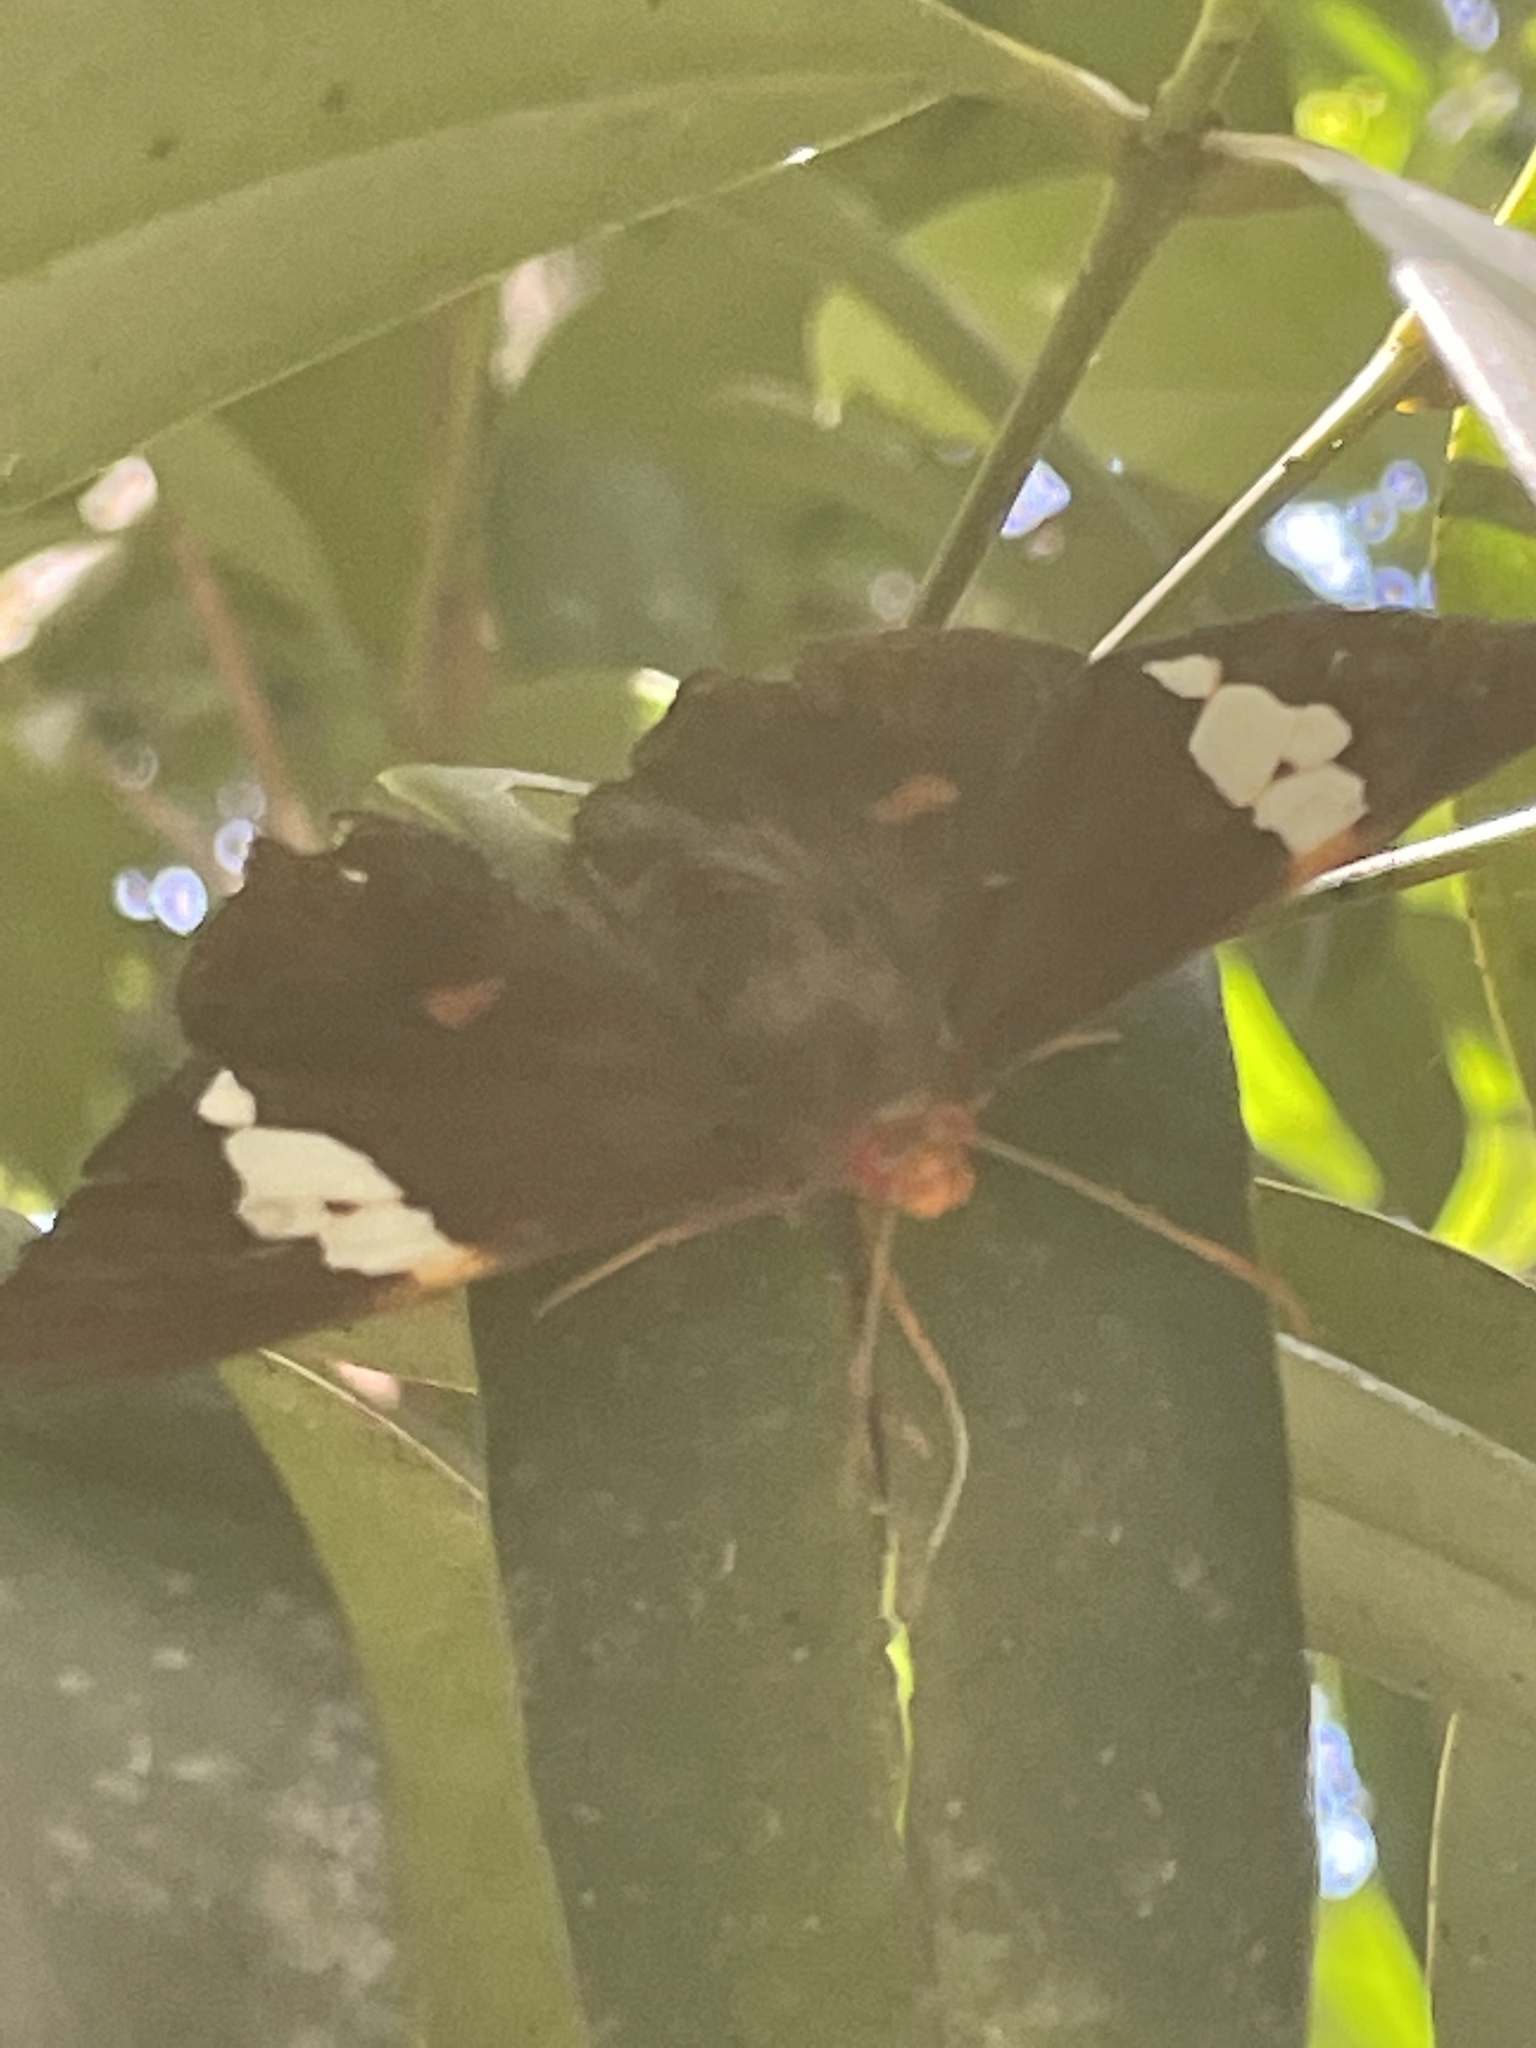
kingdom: Animalia
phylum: Arthropoda
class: Insecta
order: Lepidoptera
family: Hesperiidae
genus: Chaetocneme
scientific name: Chaetocneme beata
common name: Eastern dusk-flat
